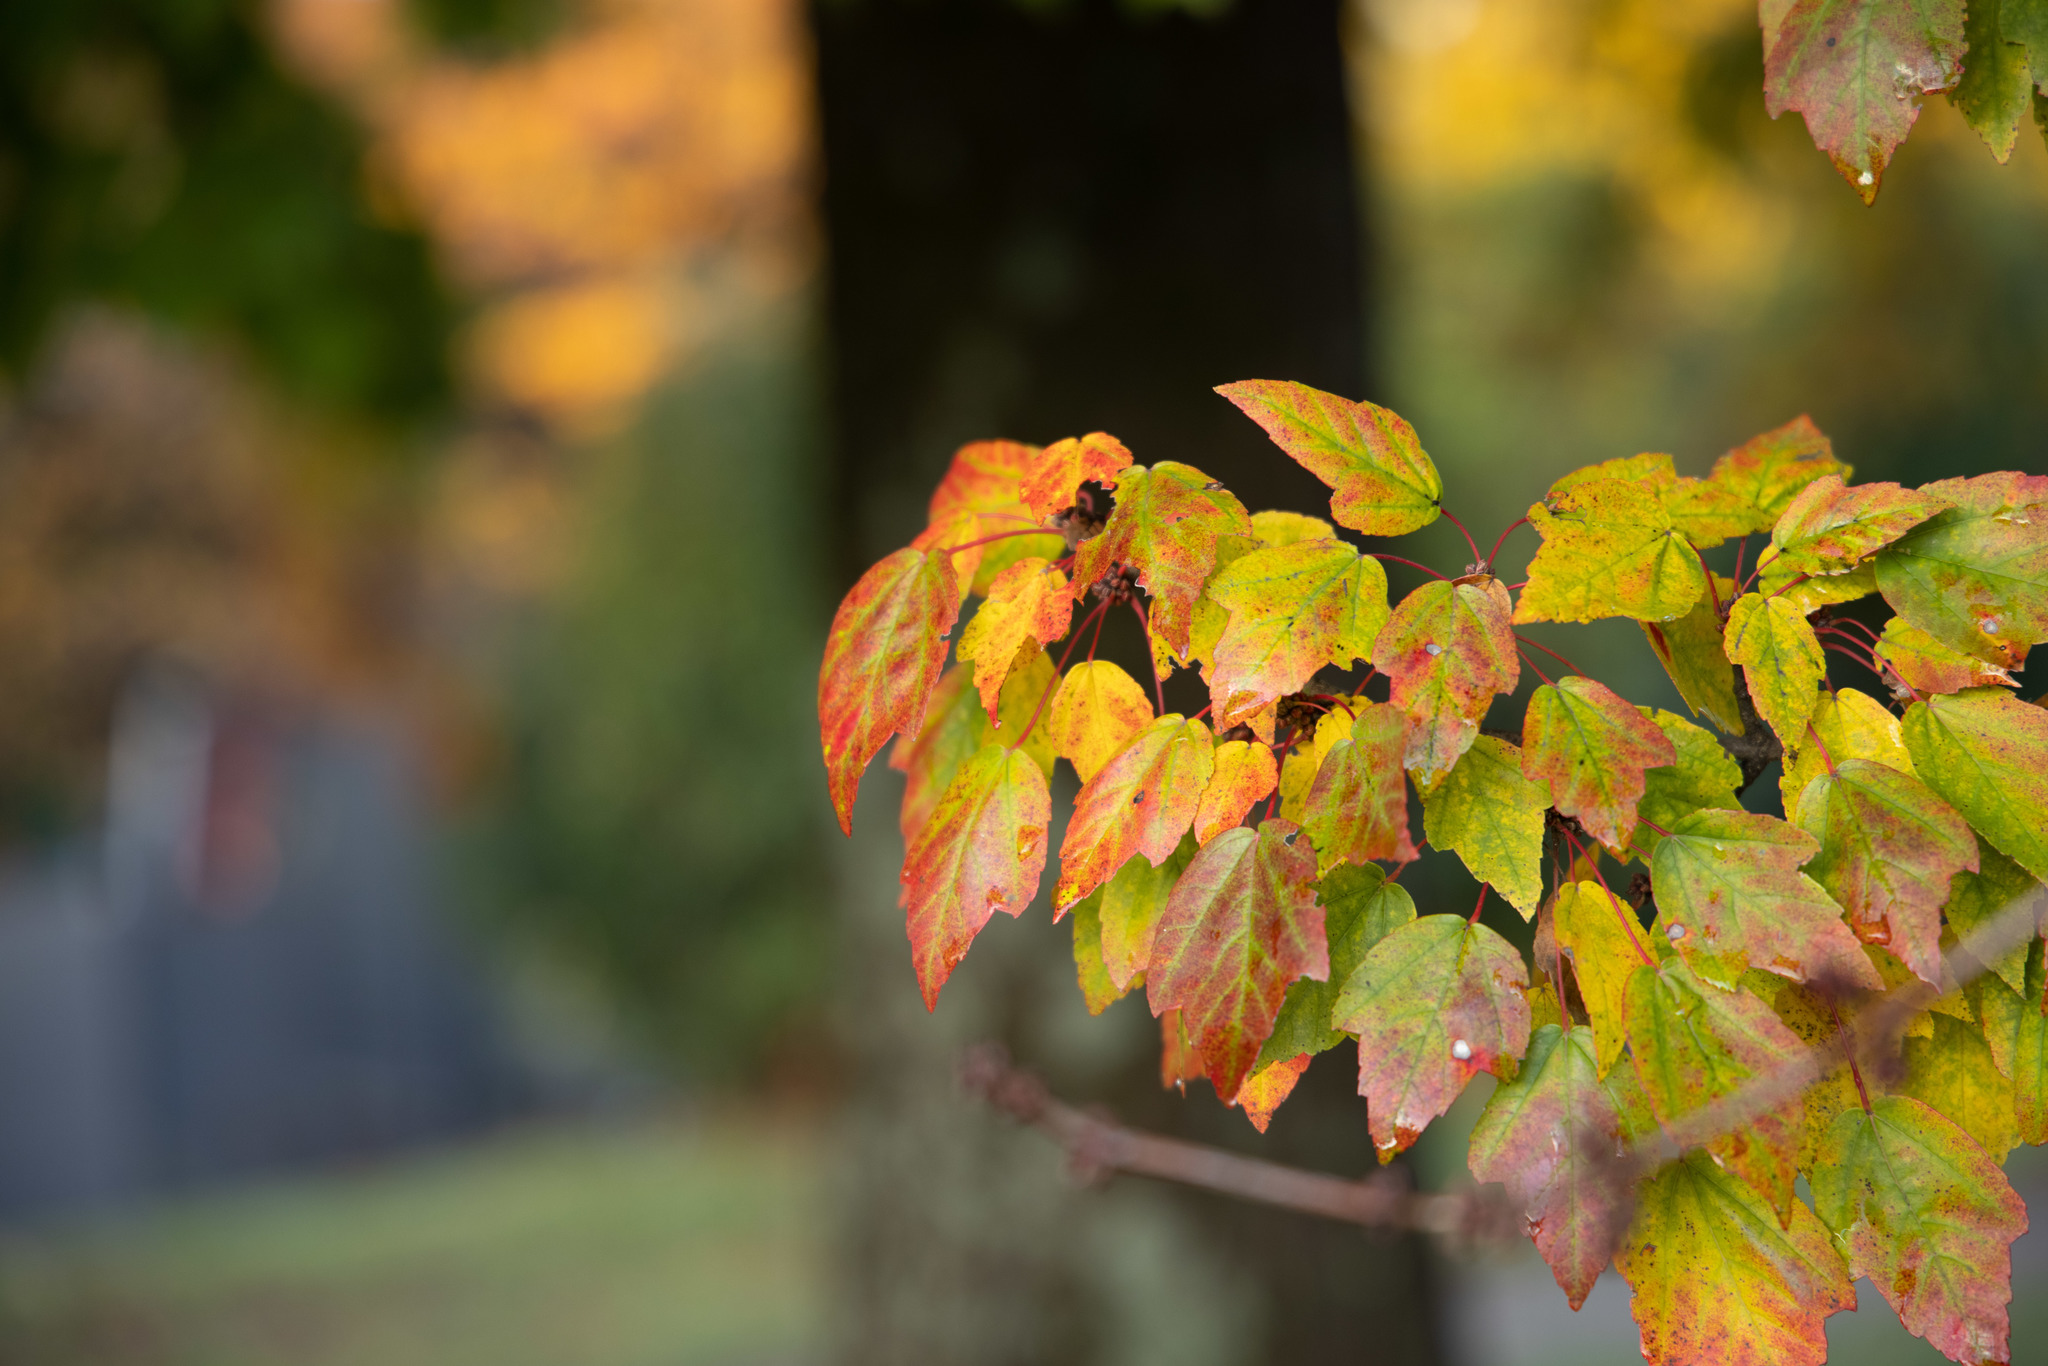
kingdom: Plantae
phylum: Tracheophyta
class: Magnoliopsida
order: Sapindales
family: Sapindaceae
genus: Acer
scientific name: Acer rubrum
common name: Red maple
